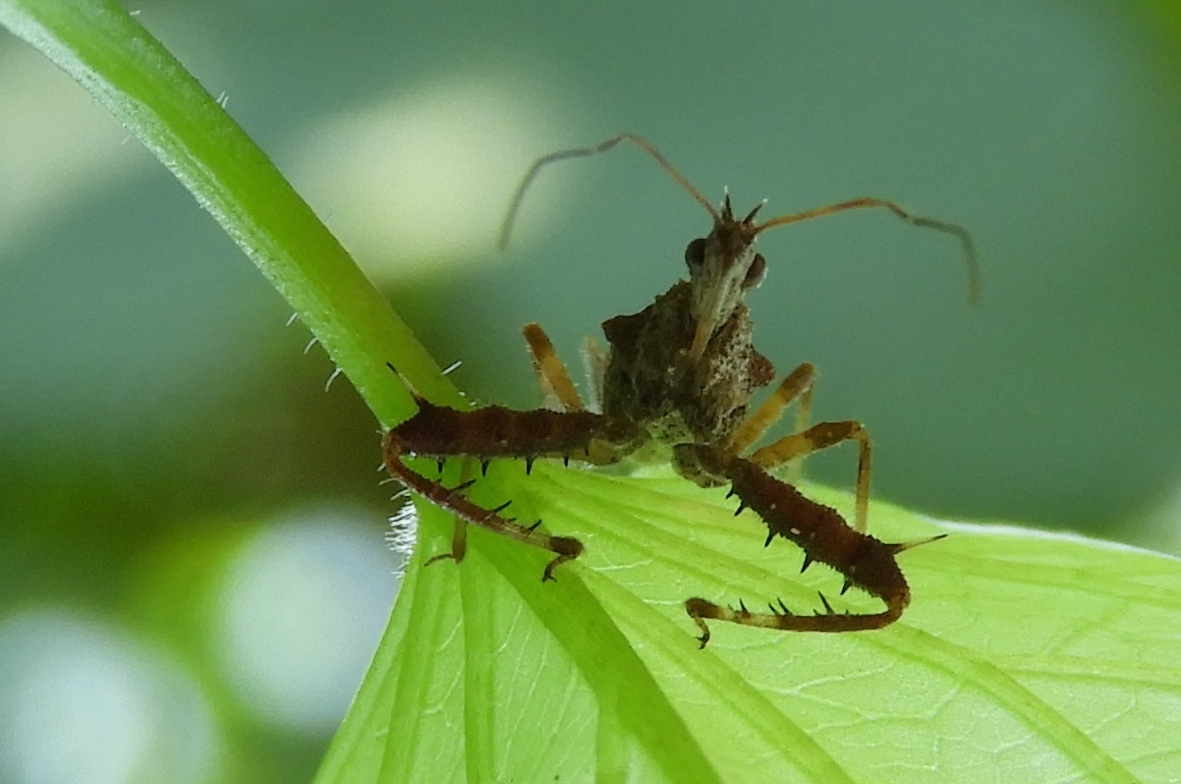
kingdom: Animalia
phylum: Arthropoda
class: Insecta
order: Hemiptera
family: Reduviidae
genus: Sinea
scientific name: Sinea
